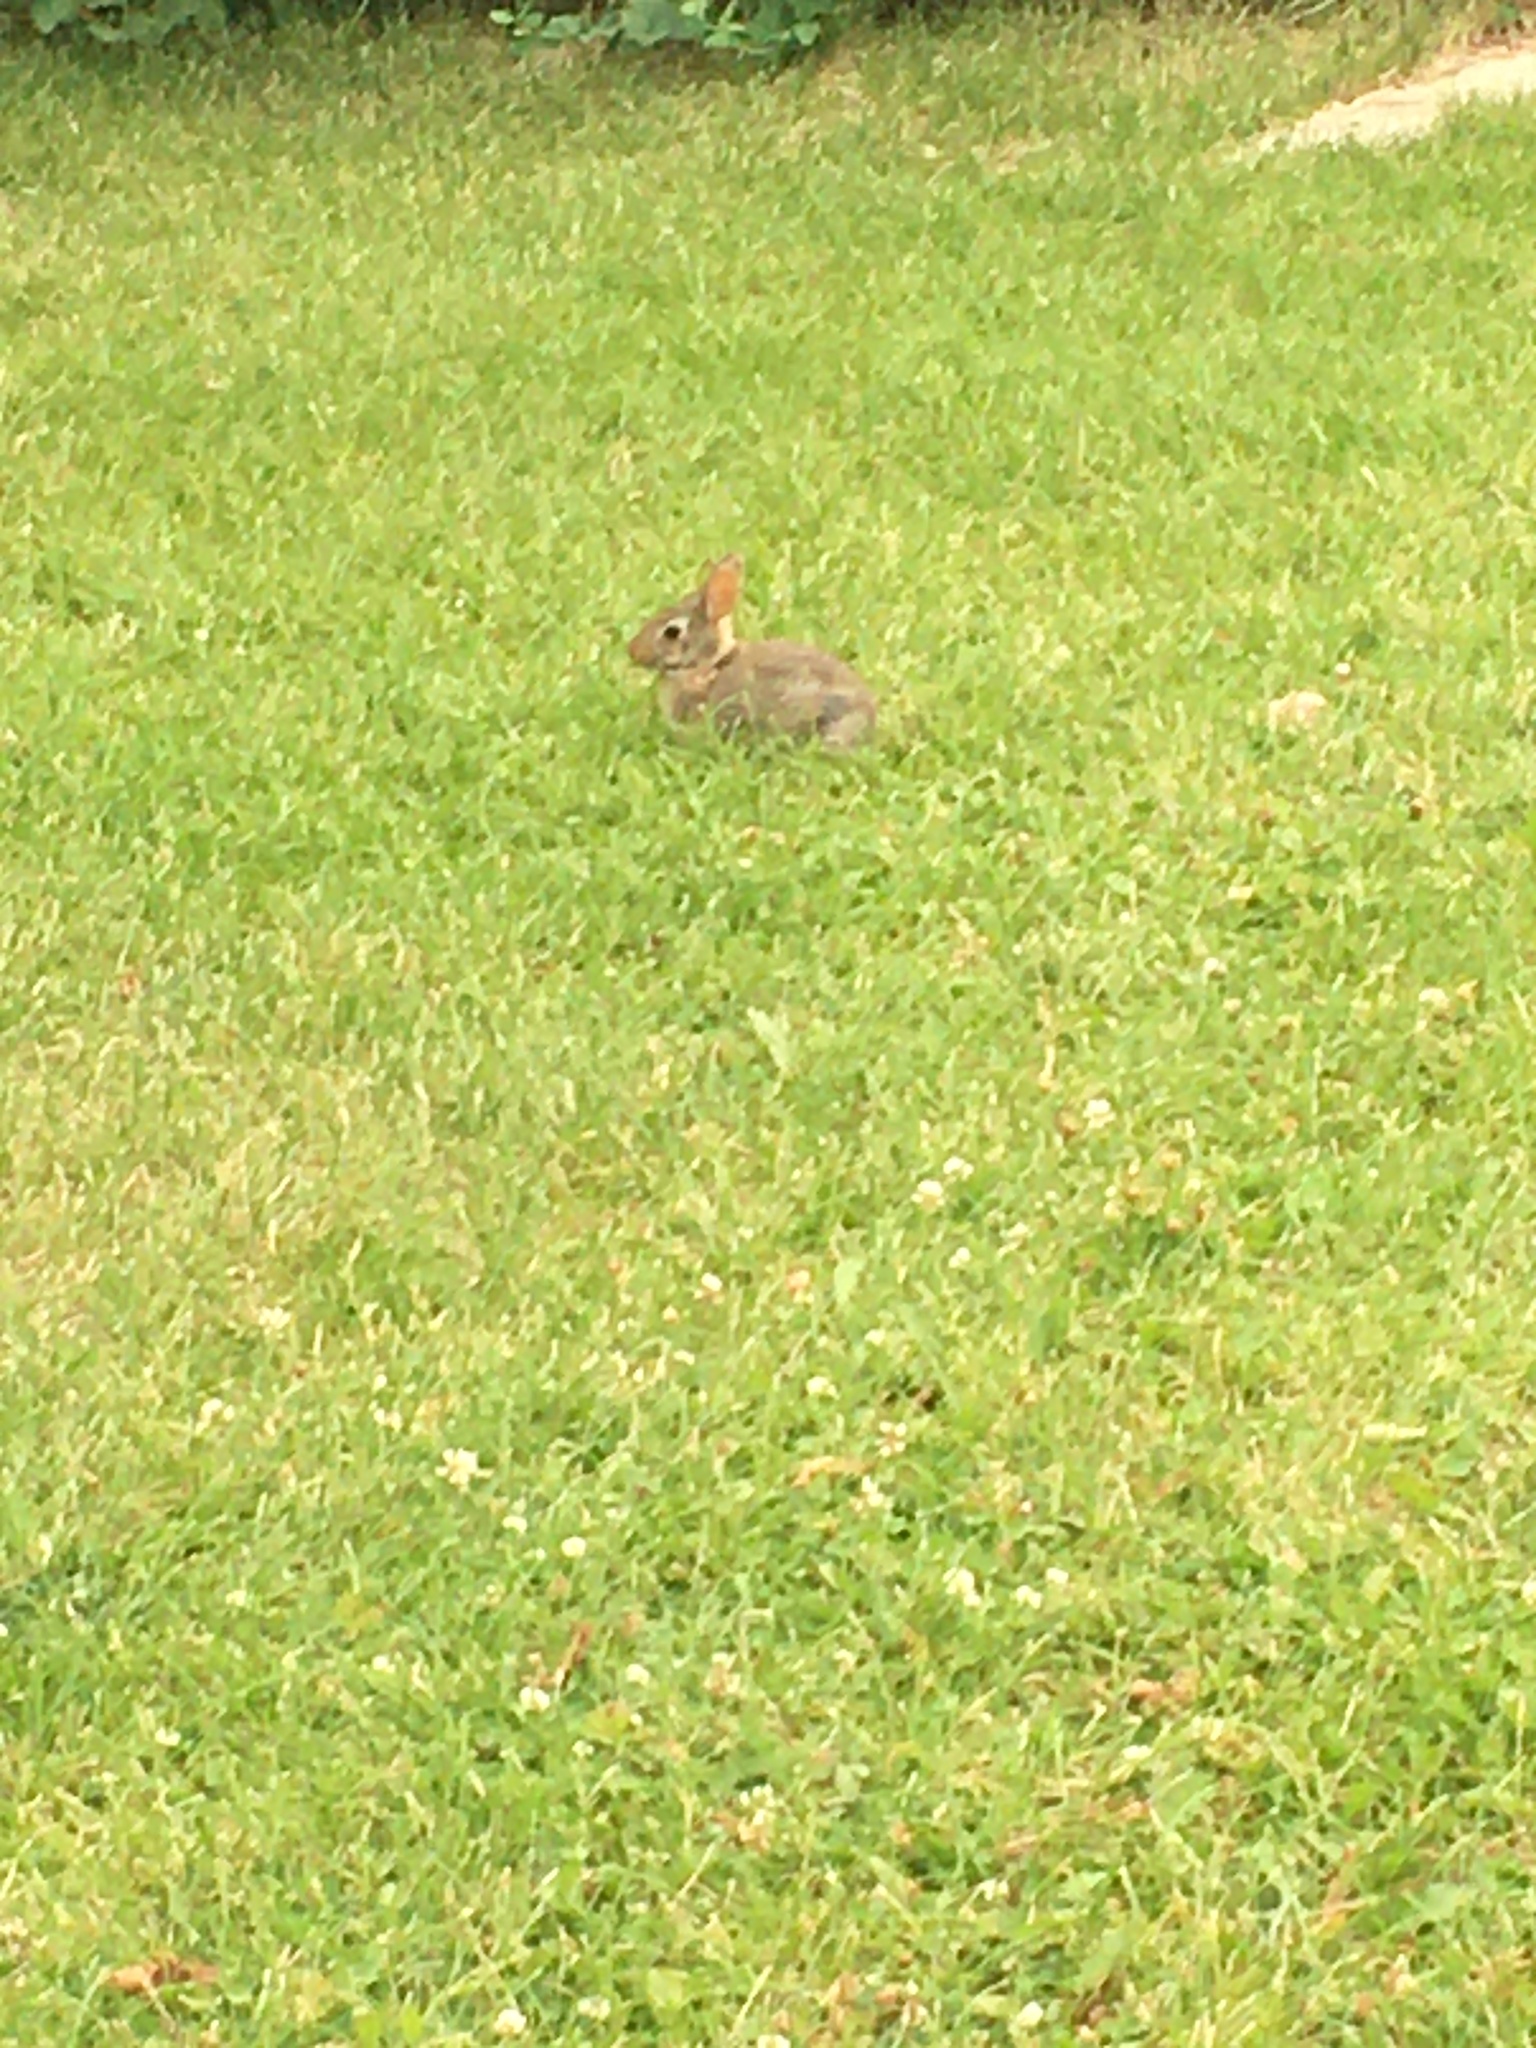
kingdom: Animalia
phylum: Chordata
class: Mammalia
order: Lagomorpha
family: Leporidae
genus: Sylvilagus
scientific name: Sylvilagus floridanus
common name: Eastern cottontail
